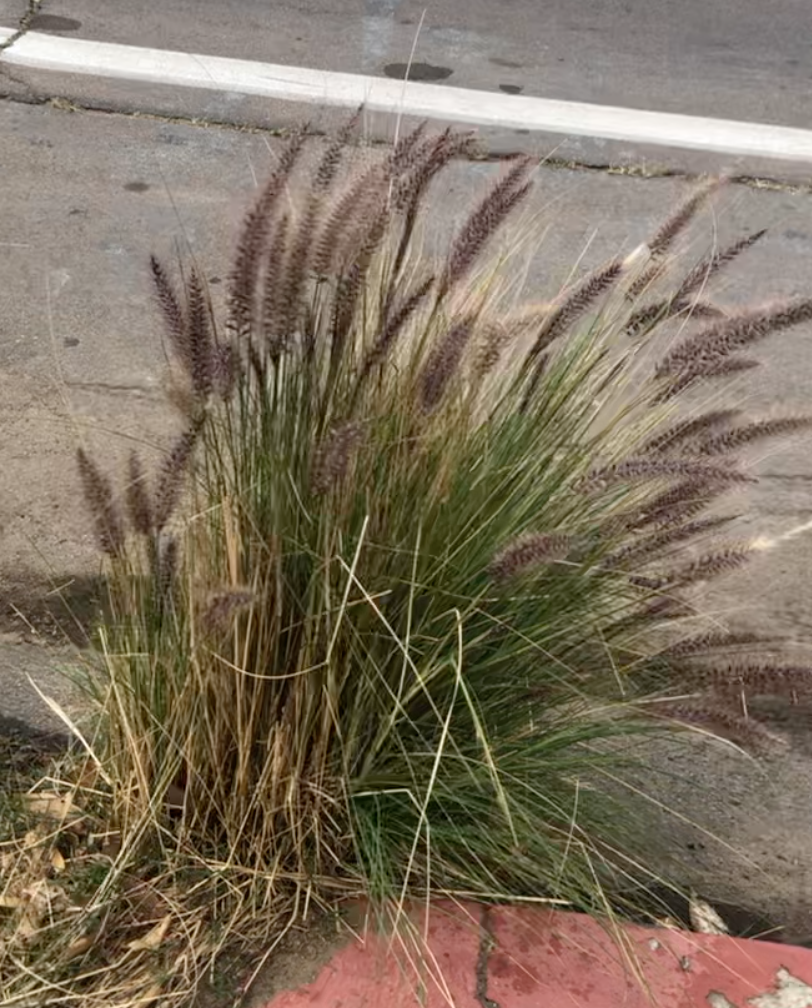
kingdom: Plantae
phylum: Tracheophyta
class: Liliopsida
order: Poales
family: Poaceae
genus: Cenchrus
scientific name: Cenchrus setaceus
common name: Crimson fountaingrass
